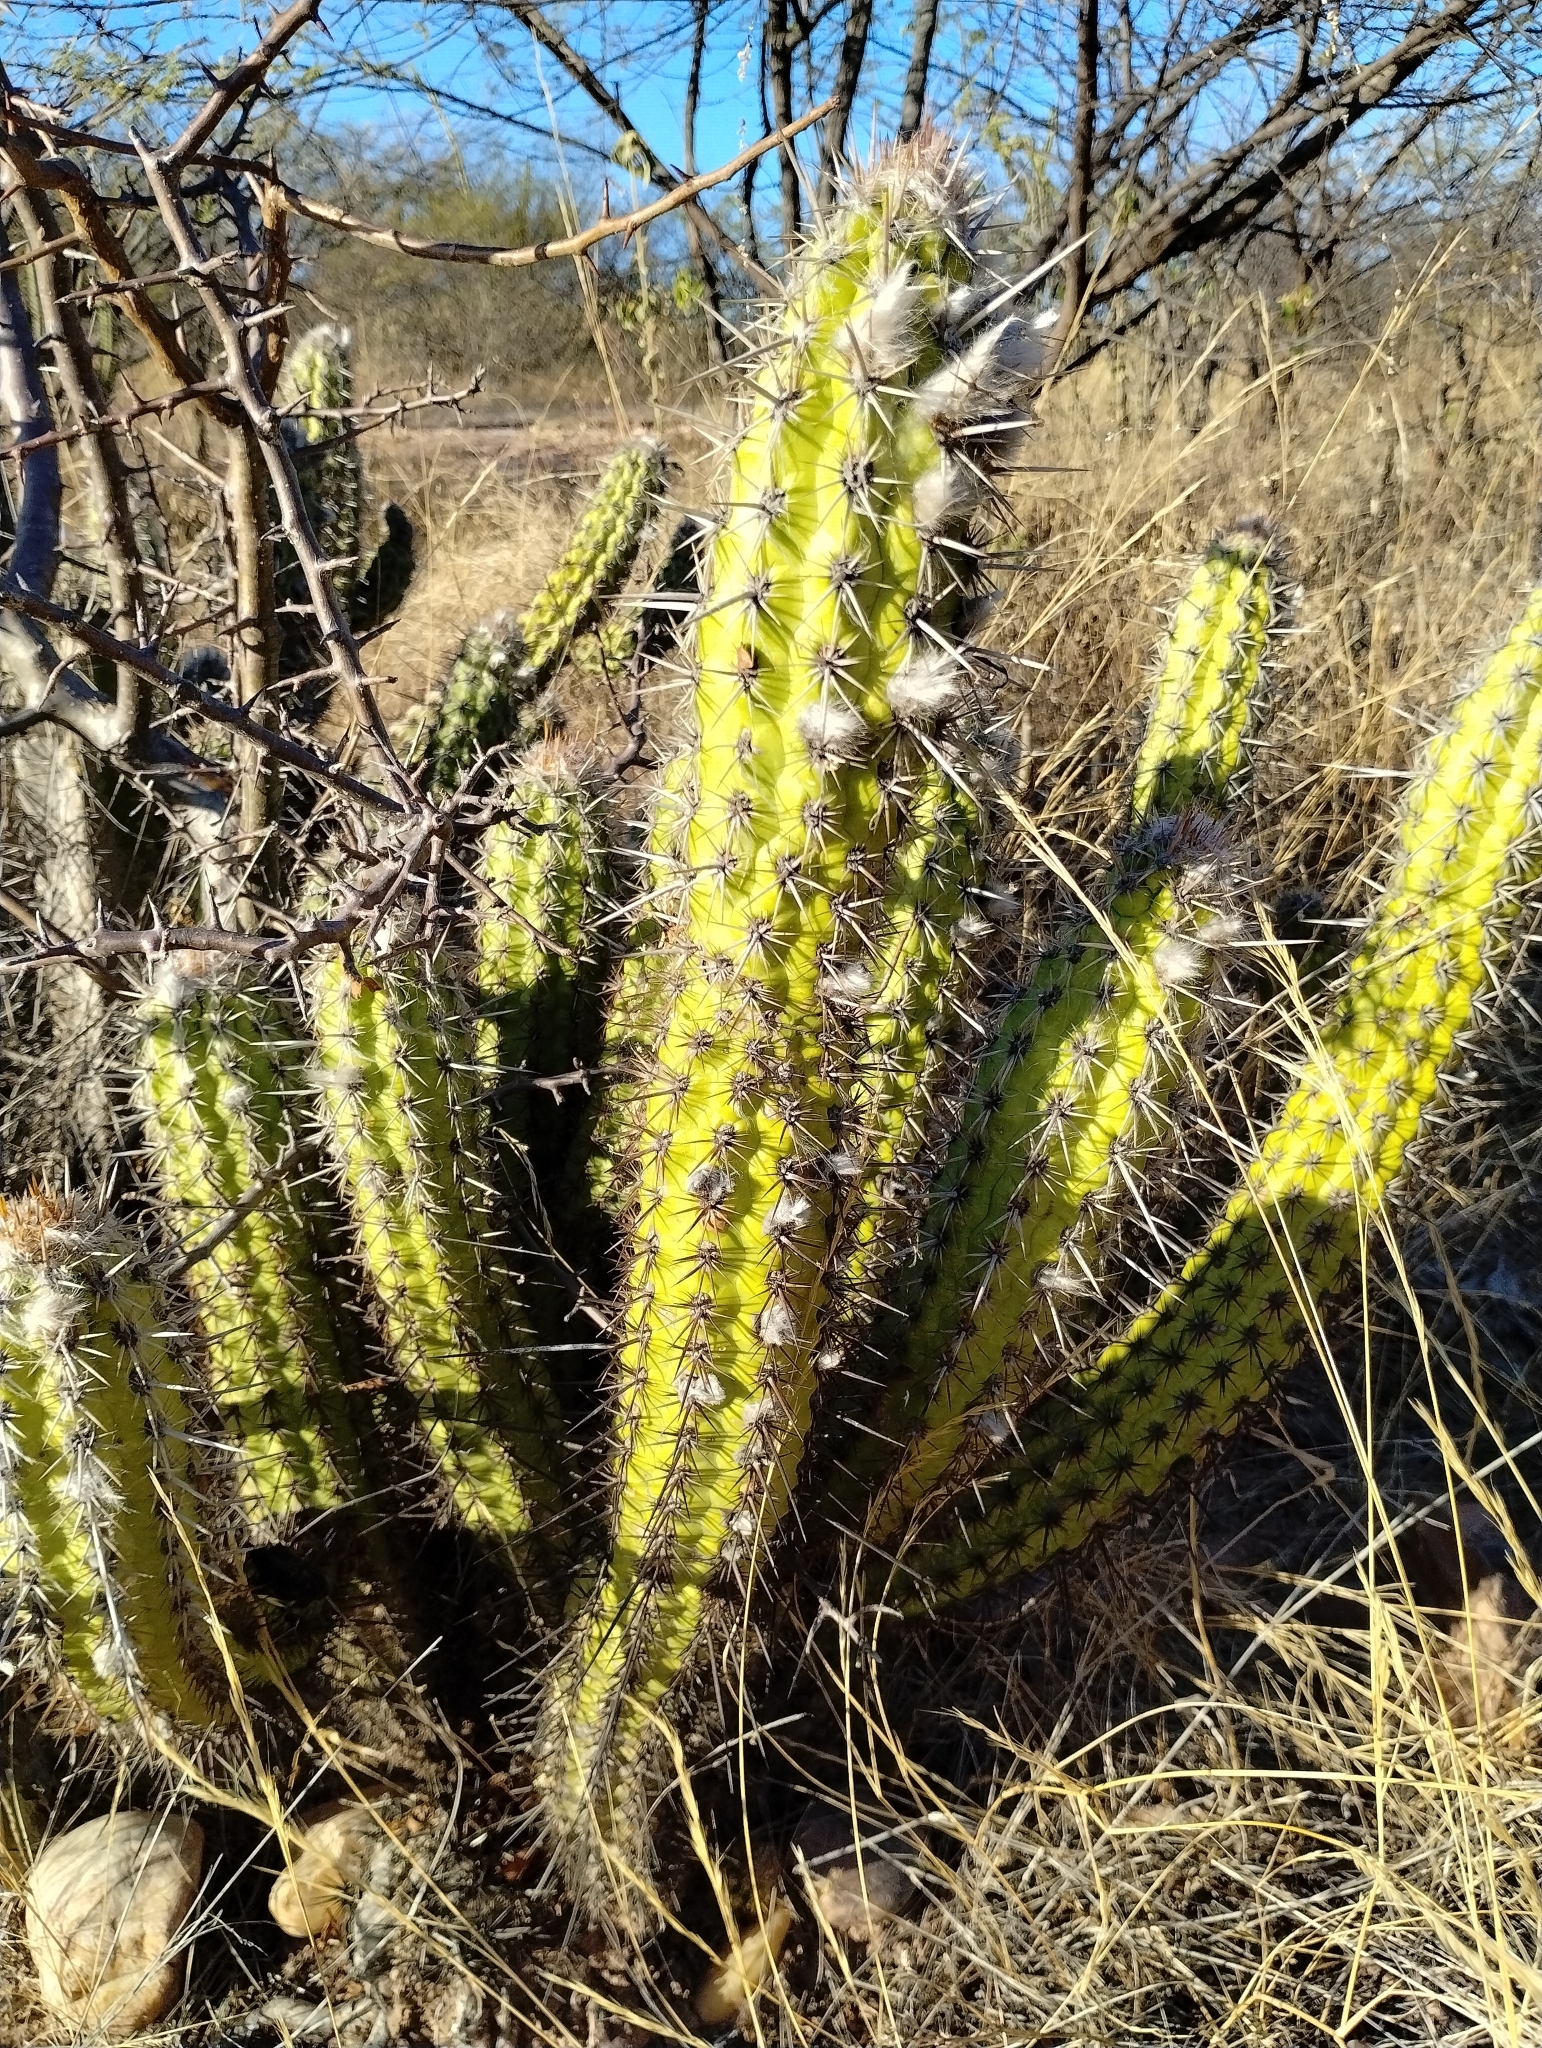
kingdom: Plantae
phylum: Tracheophyta
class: Magnoliopsida
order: Caryophyllales
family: Cactaceae
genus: Xiquexique
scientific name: Xiquexique gounellei
